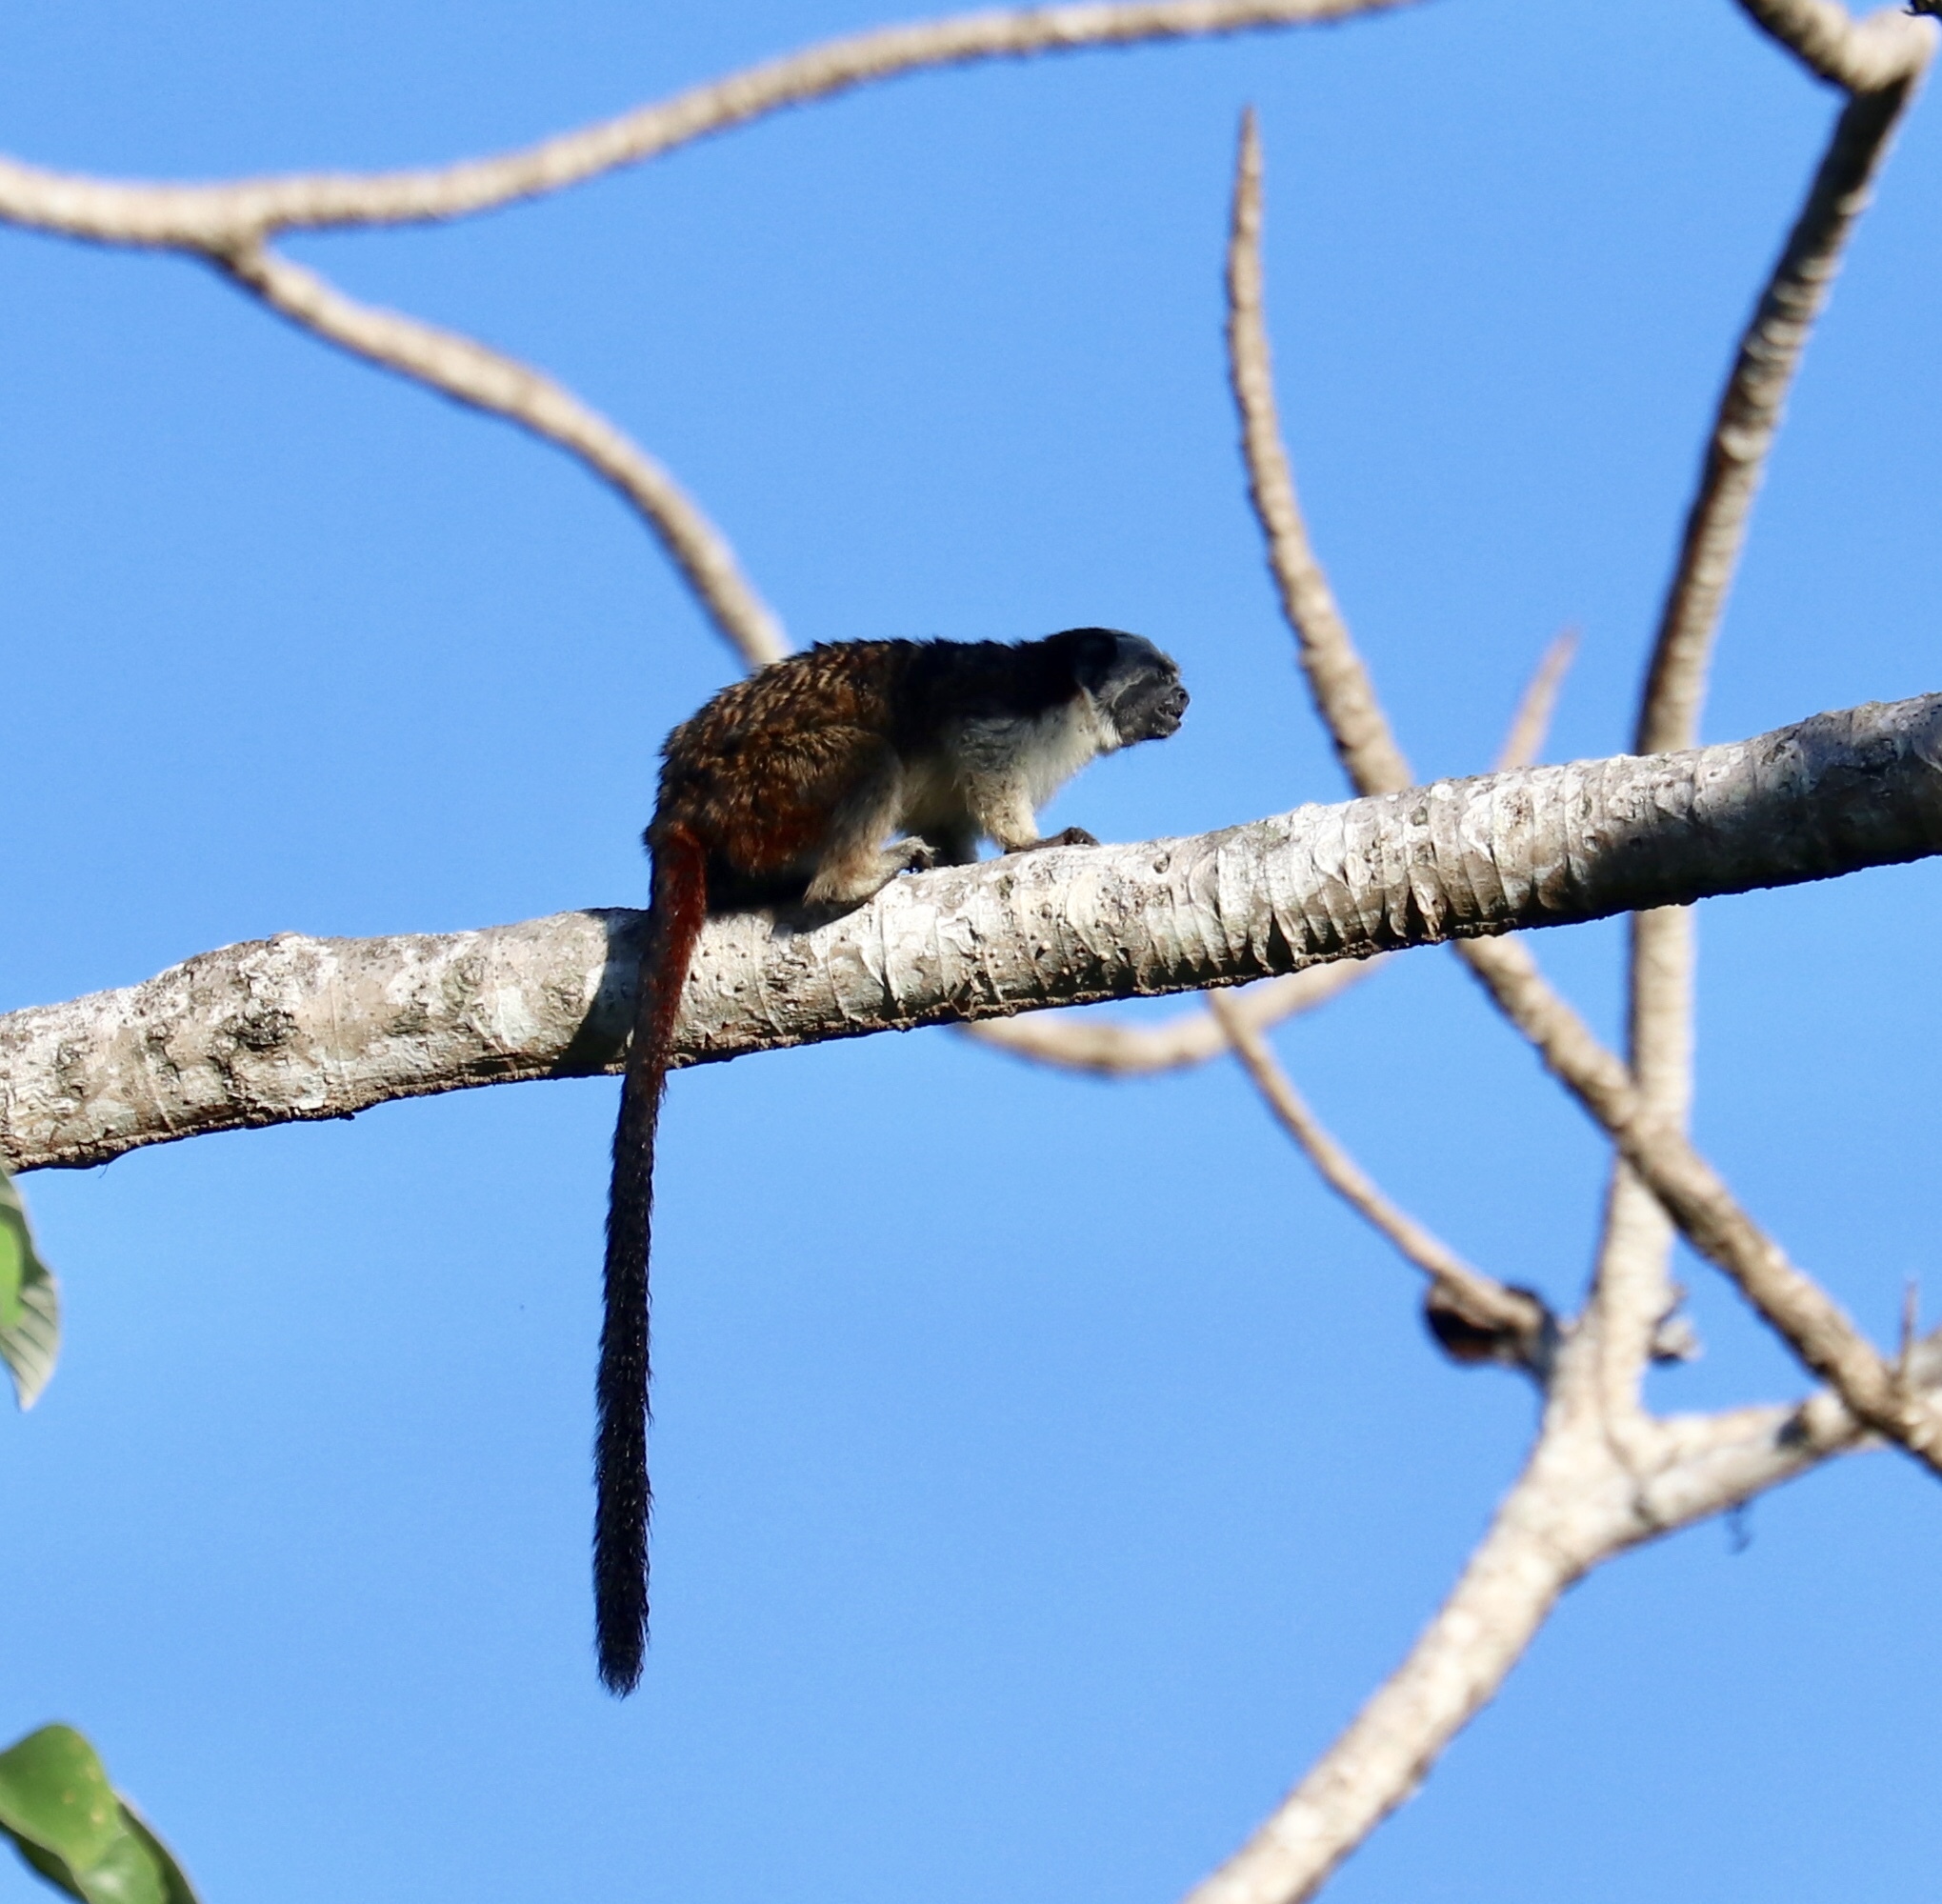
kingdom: Animalia
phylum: Chordata
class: Mammalia
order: Primates
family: Callitrichidae
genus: Saguinus
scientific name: Saguinus geoffroyi
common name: Geoffroy s tamarin
